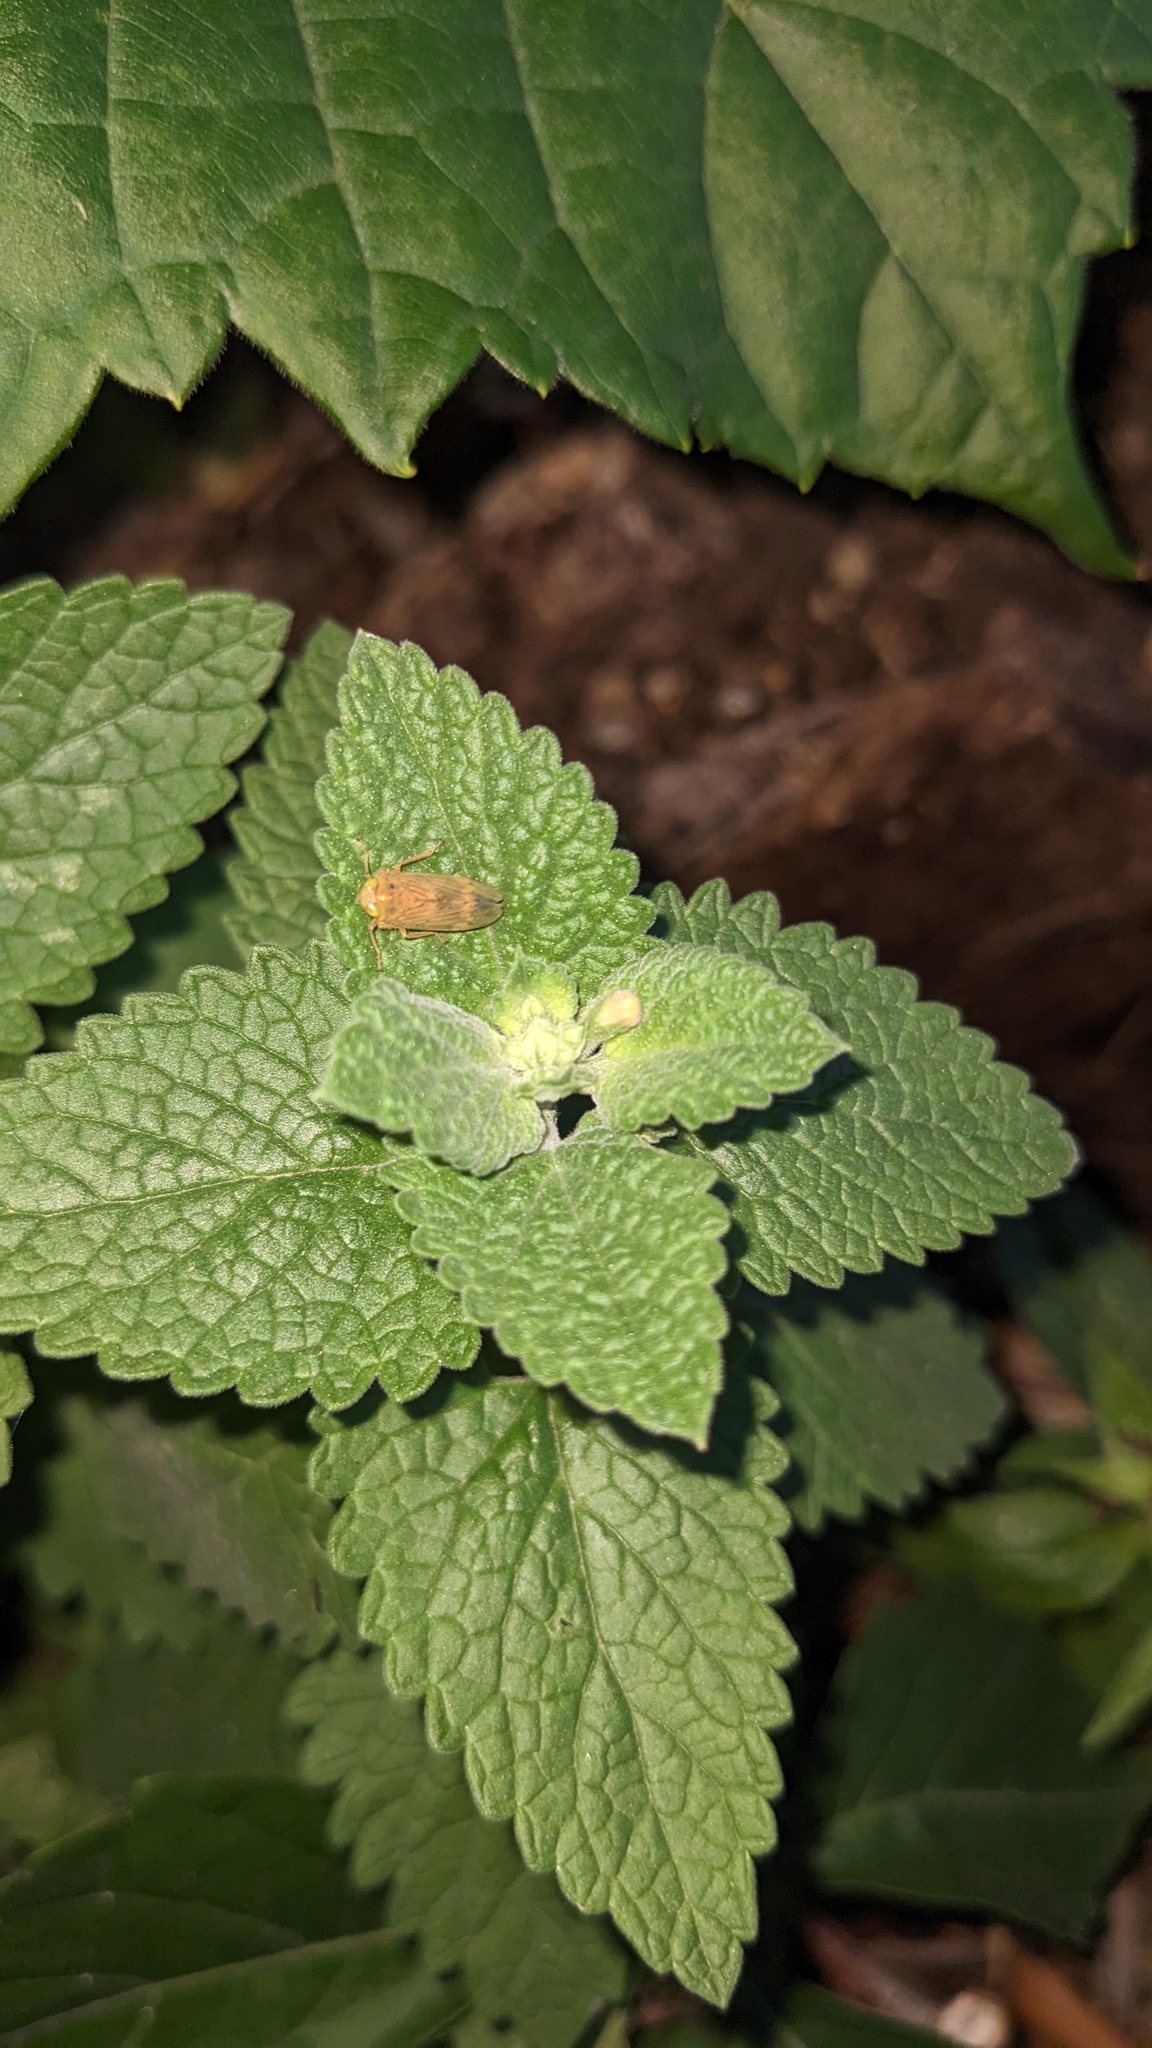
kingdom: Plantae
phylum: Tracheophyta
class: Magnoliopsida
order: Lamiales
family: Lamiaceae
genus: Nepeta
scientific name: Nepeta cataria
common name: Catnip
